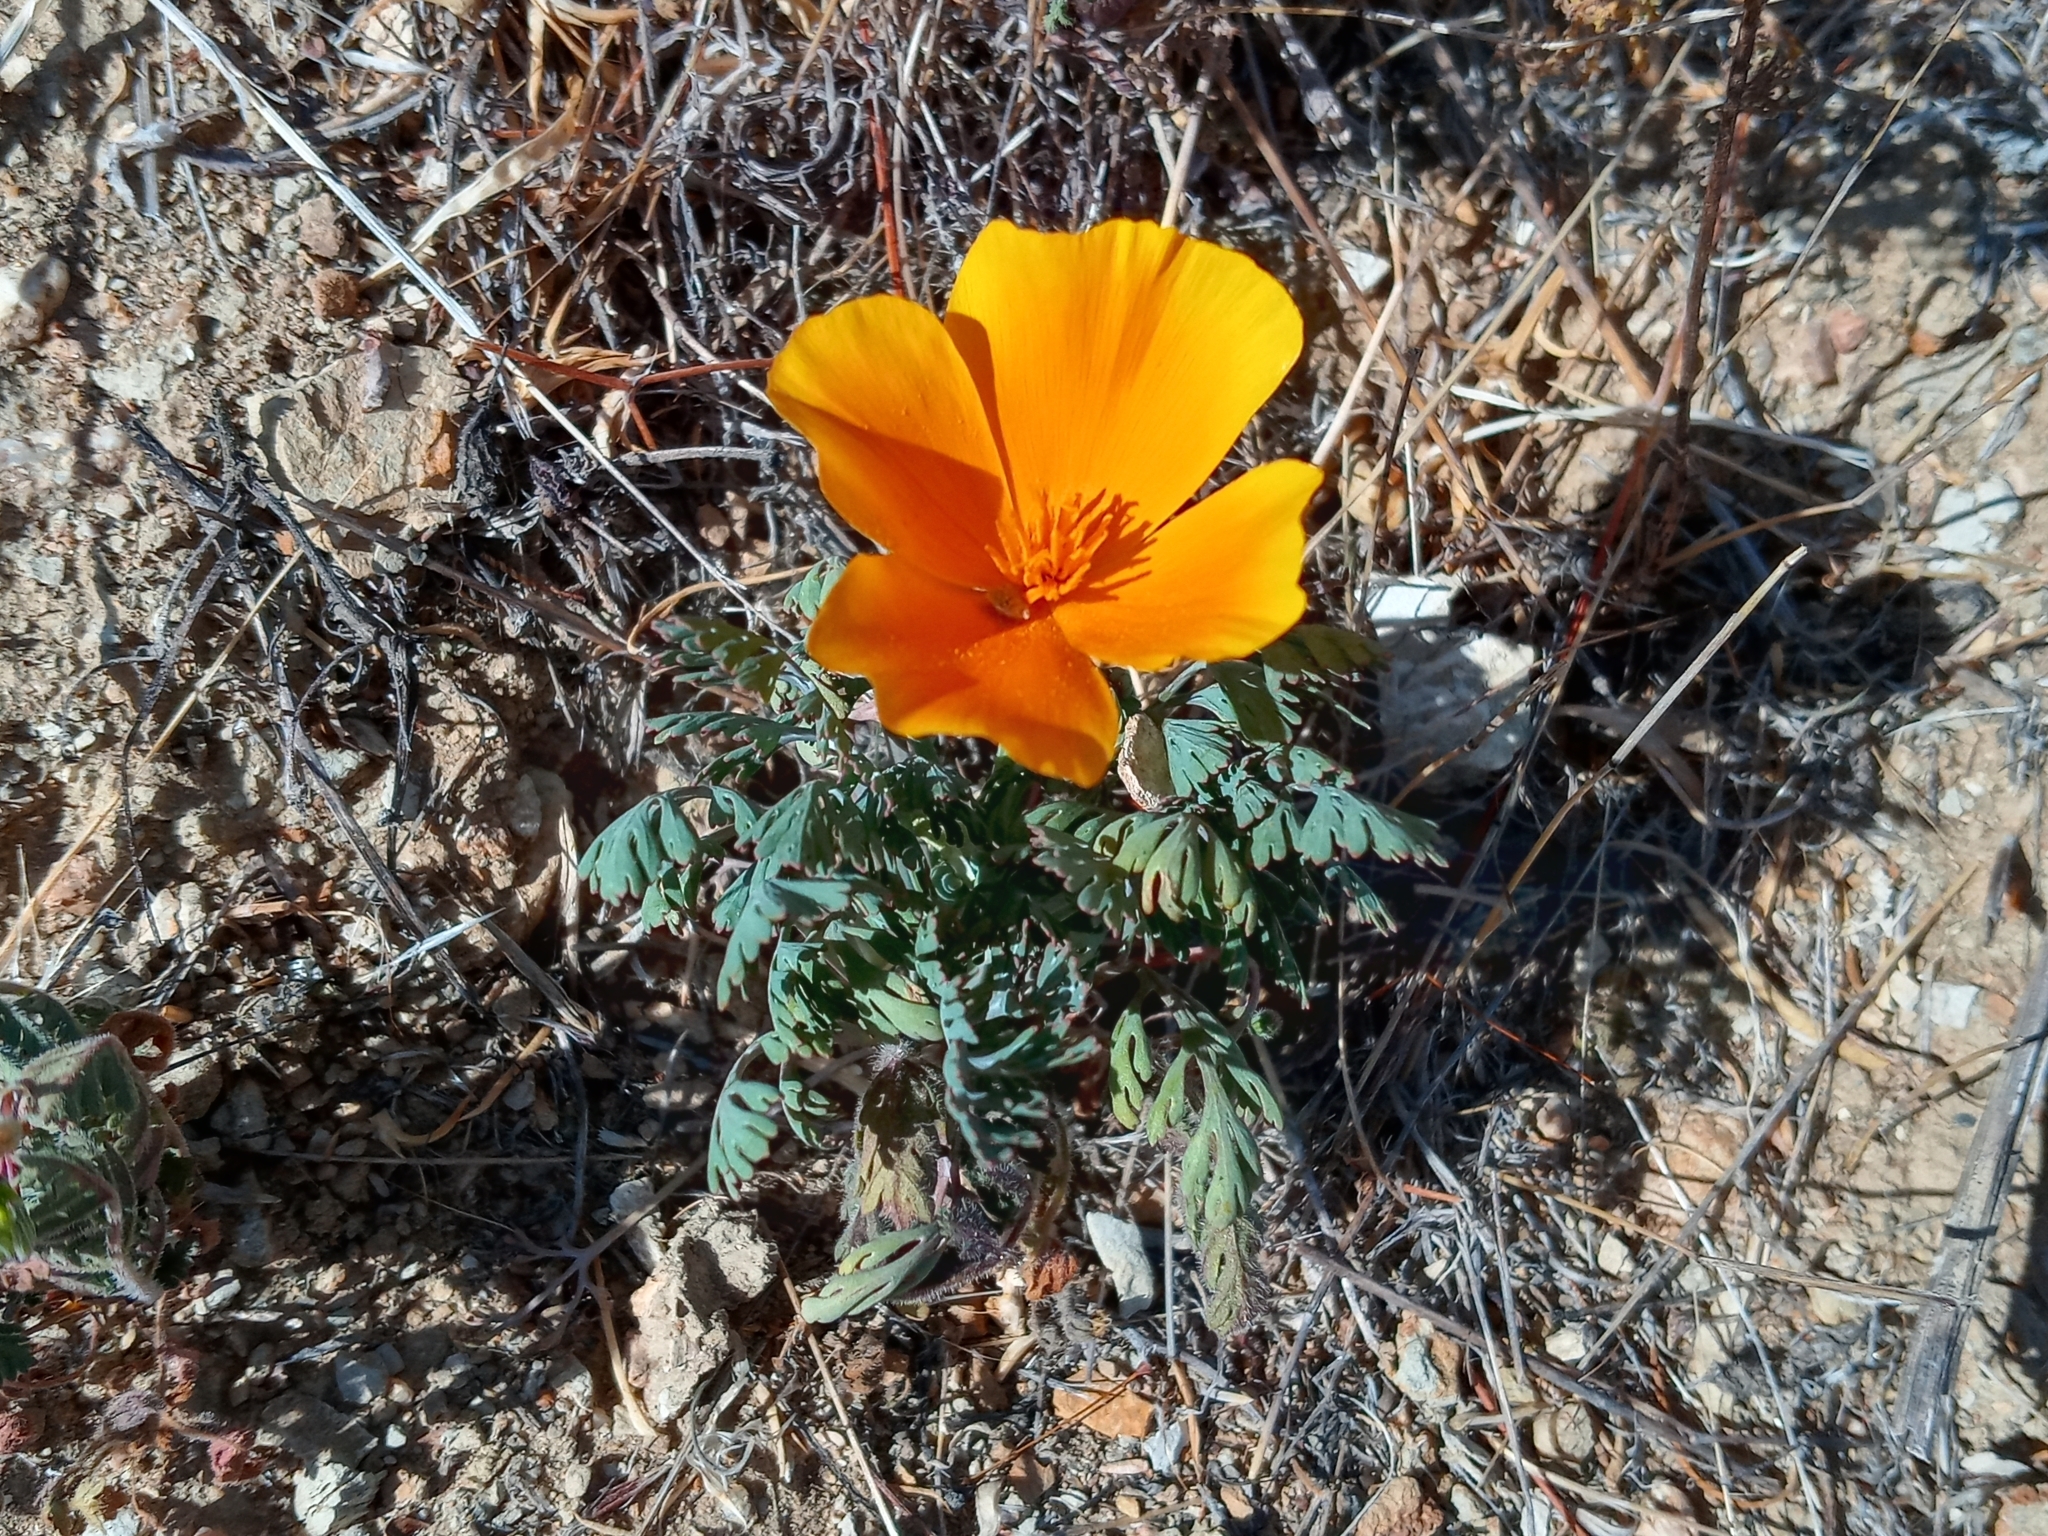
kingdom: Plantae
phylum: Tracheophyta
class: Magnoliopsida
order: Ranunculales
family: Papaveraceae
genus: Eschscholzia
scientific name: Eschscholzia californica
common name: California poppy
